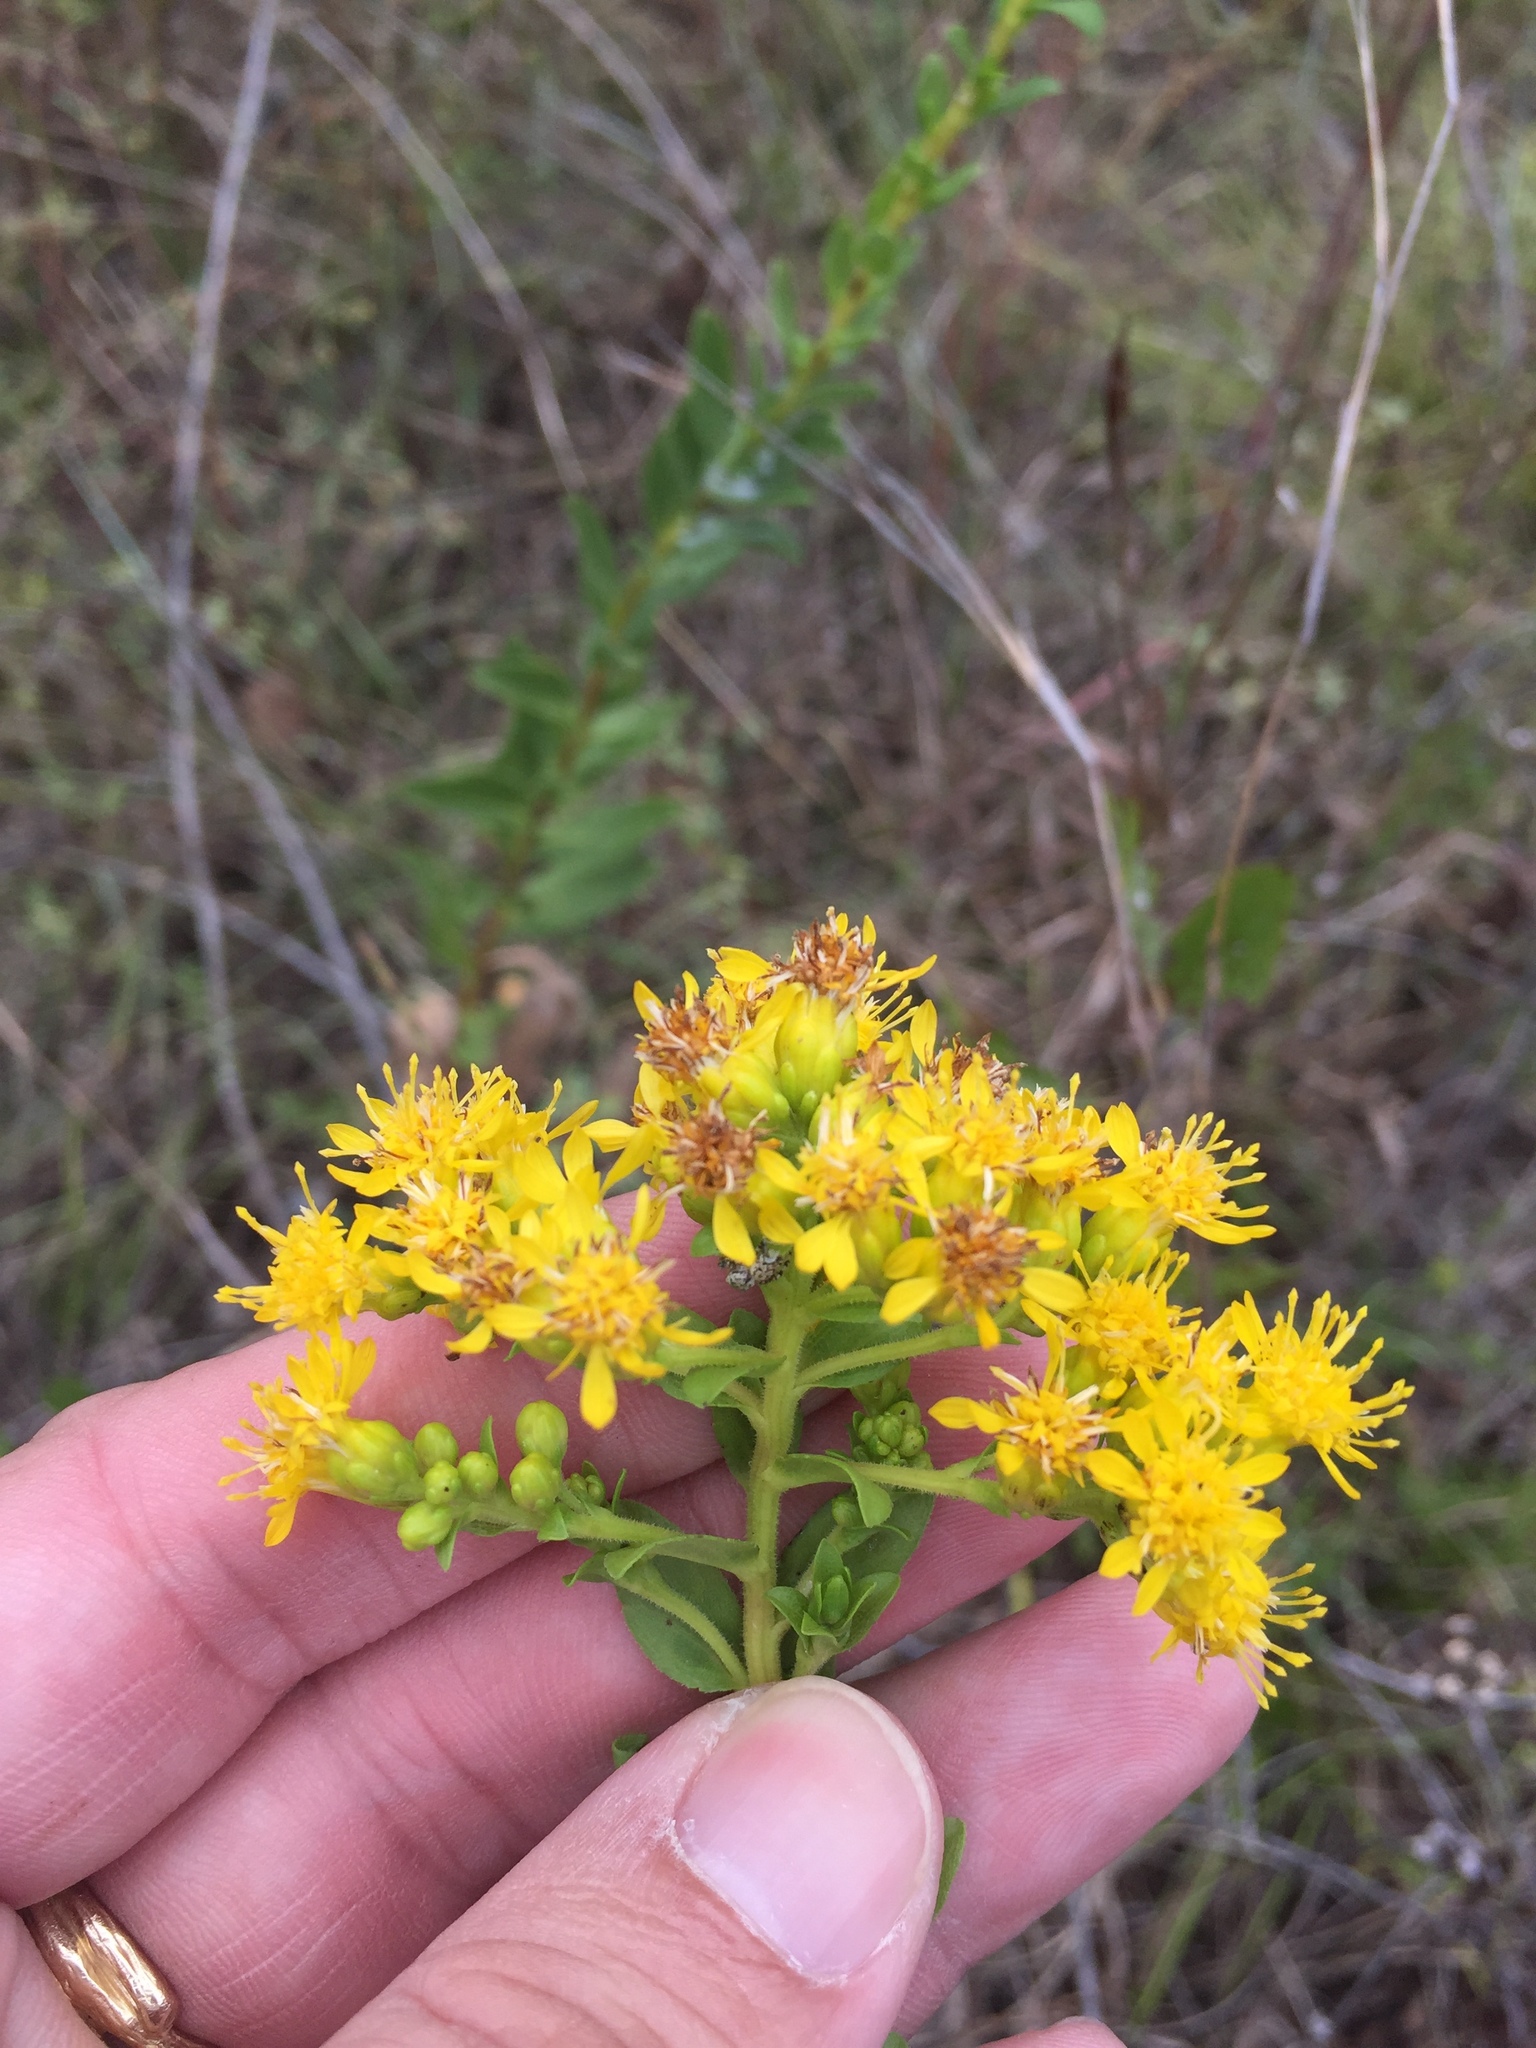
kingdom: Plantae
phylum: Tracheophyta
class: Magnoliopsida
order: Asterales
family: Asteraceae
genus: Solidago
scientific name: Solidago rigida
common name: Rigid goldenrod
